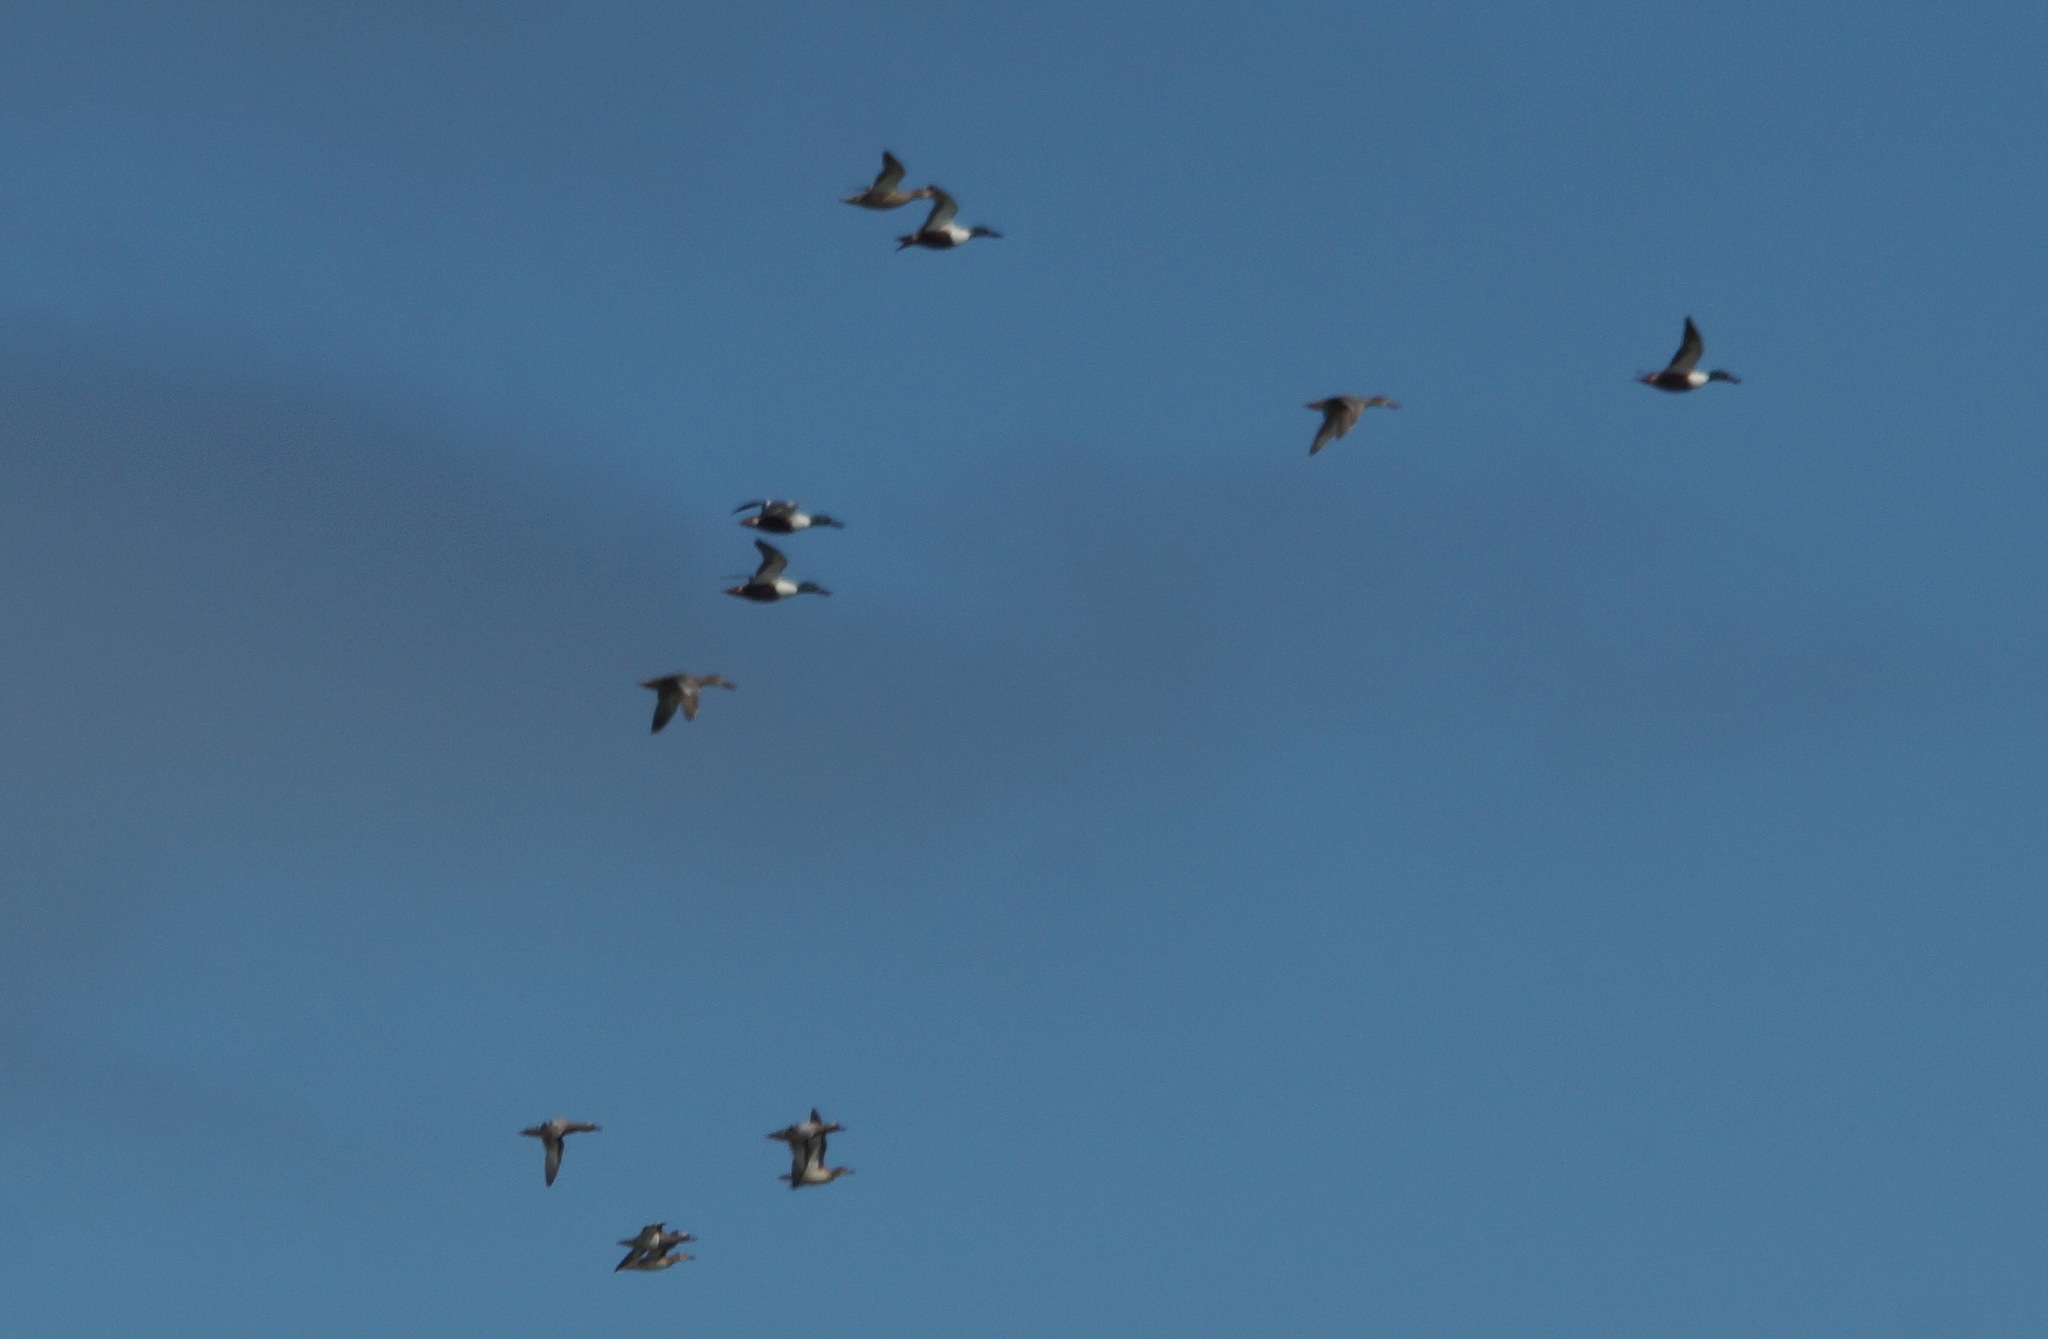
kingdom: Animalia
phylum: Chordata
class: Aves
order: Anseriformes
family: Anatidae
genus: Spatula
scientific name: Spatula clypeata
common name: Northern shoveler
